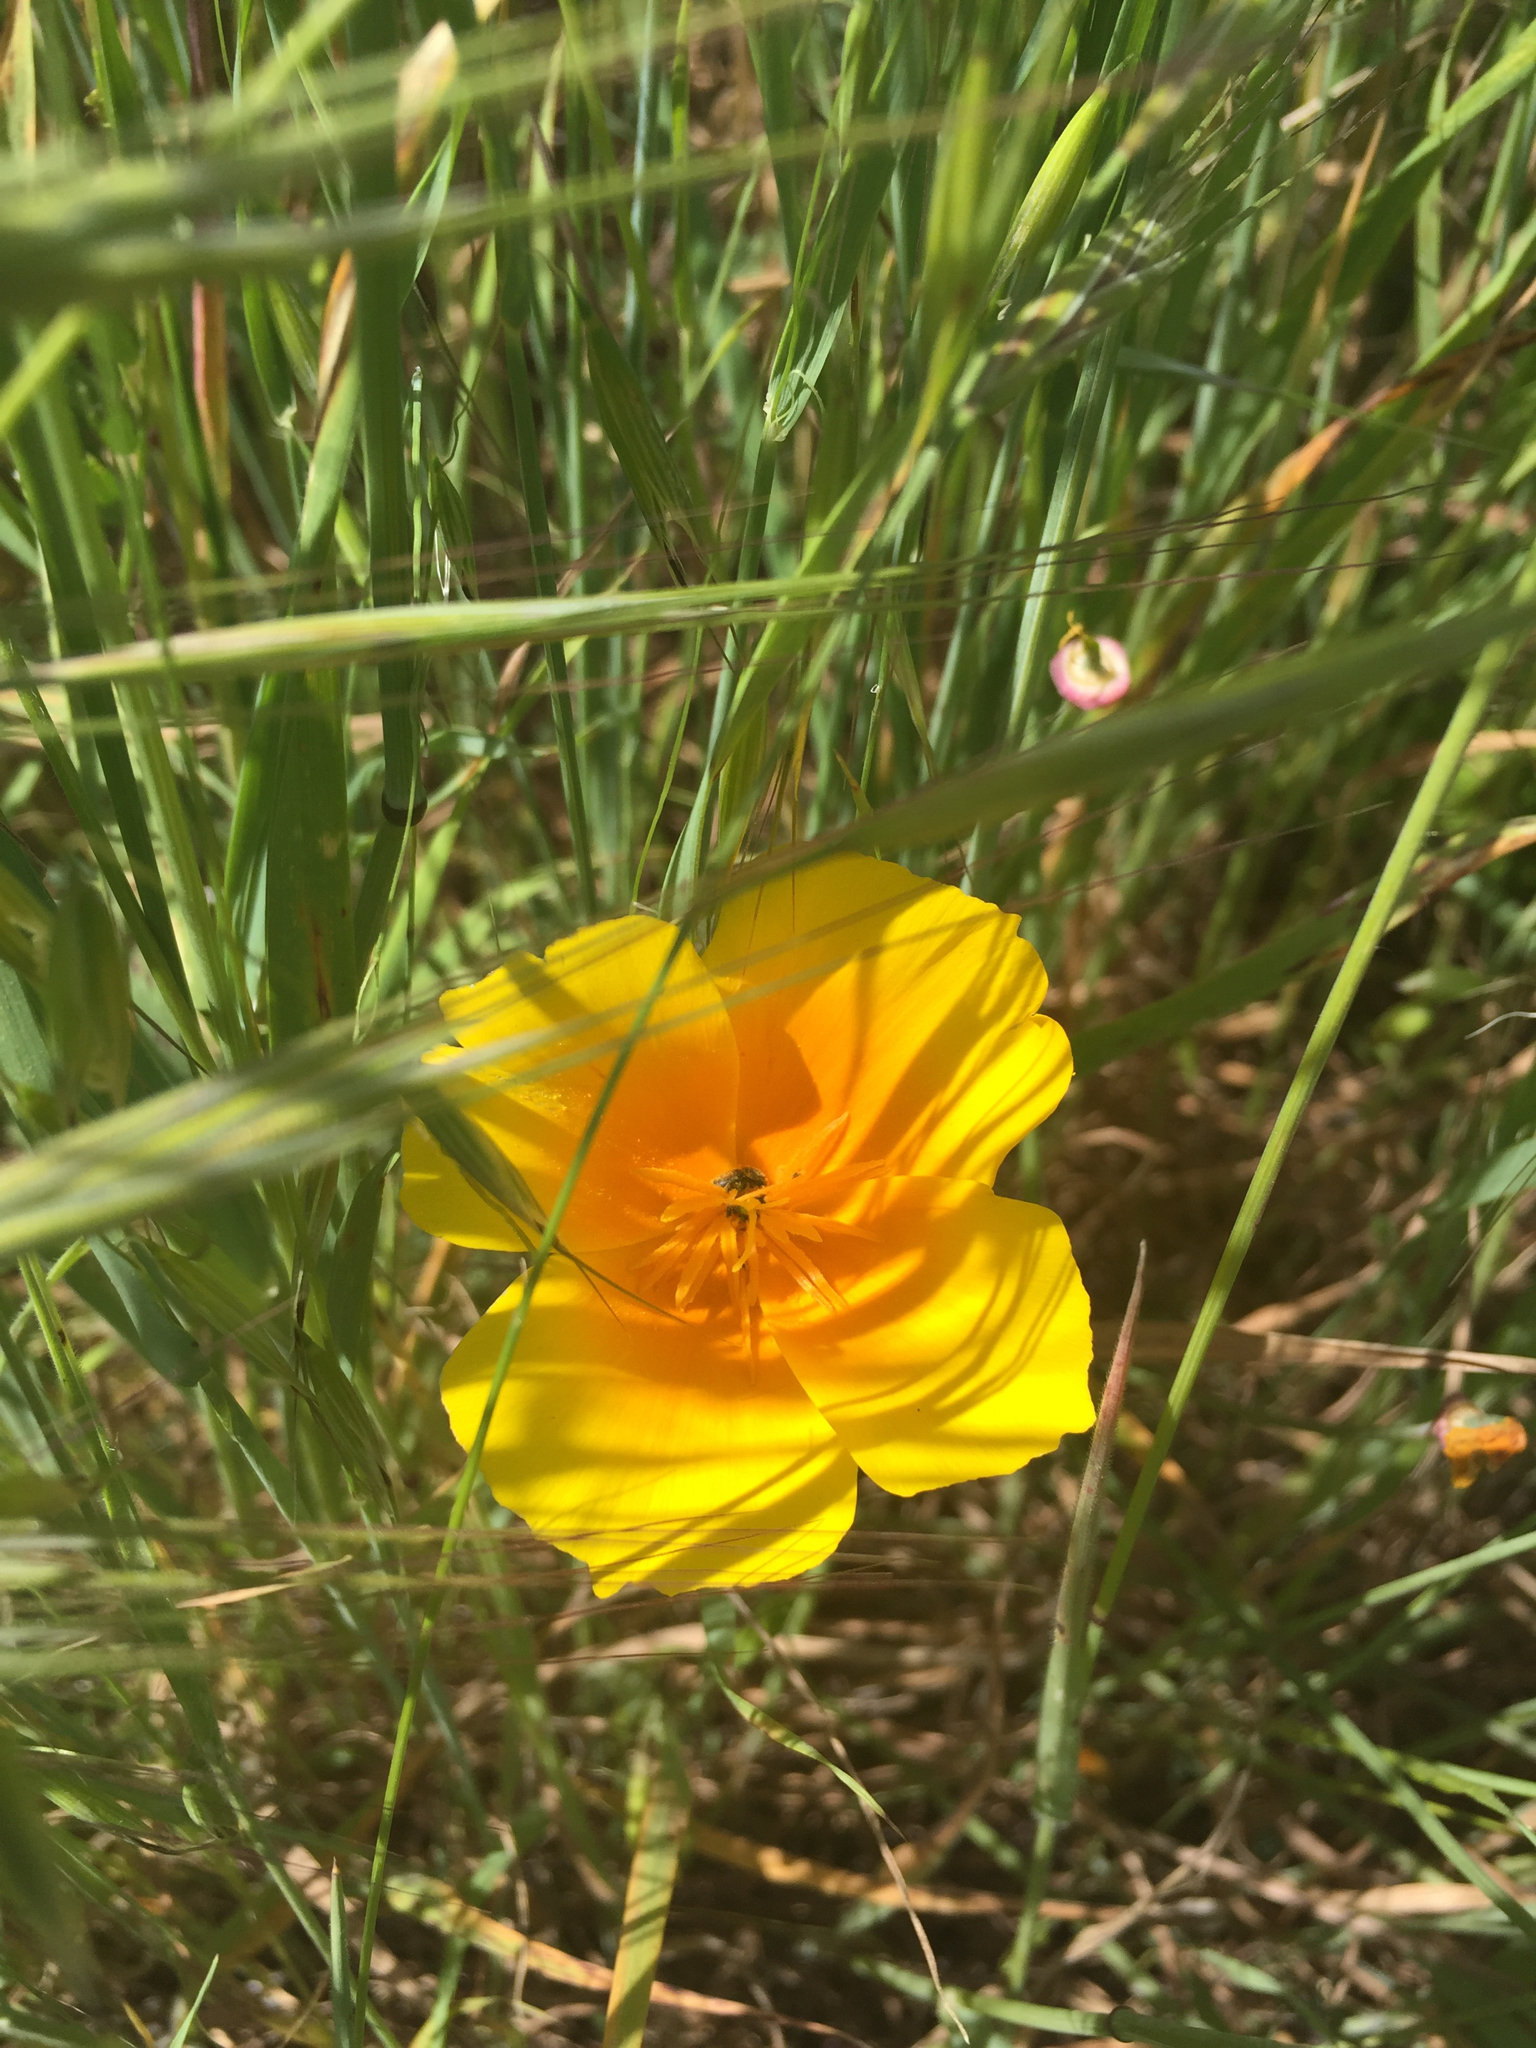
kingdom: Plantae
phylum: Tracheophyta
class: Magnoliopsida
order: Ranunculales
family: Papaveraceae
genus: Eschscholzia
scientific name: Eschscholzia californica
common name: California poppy
